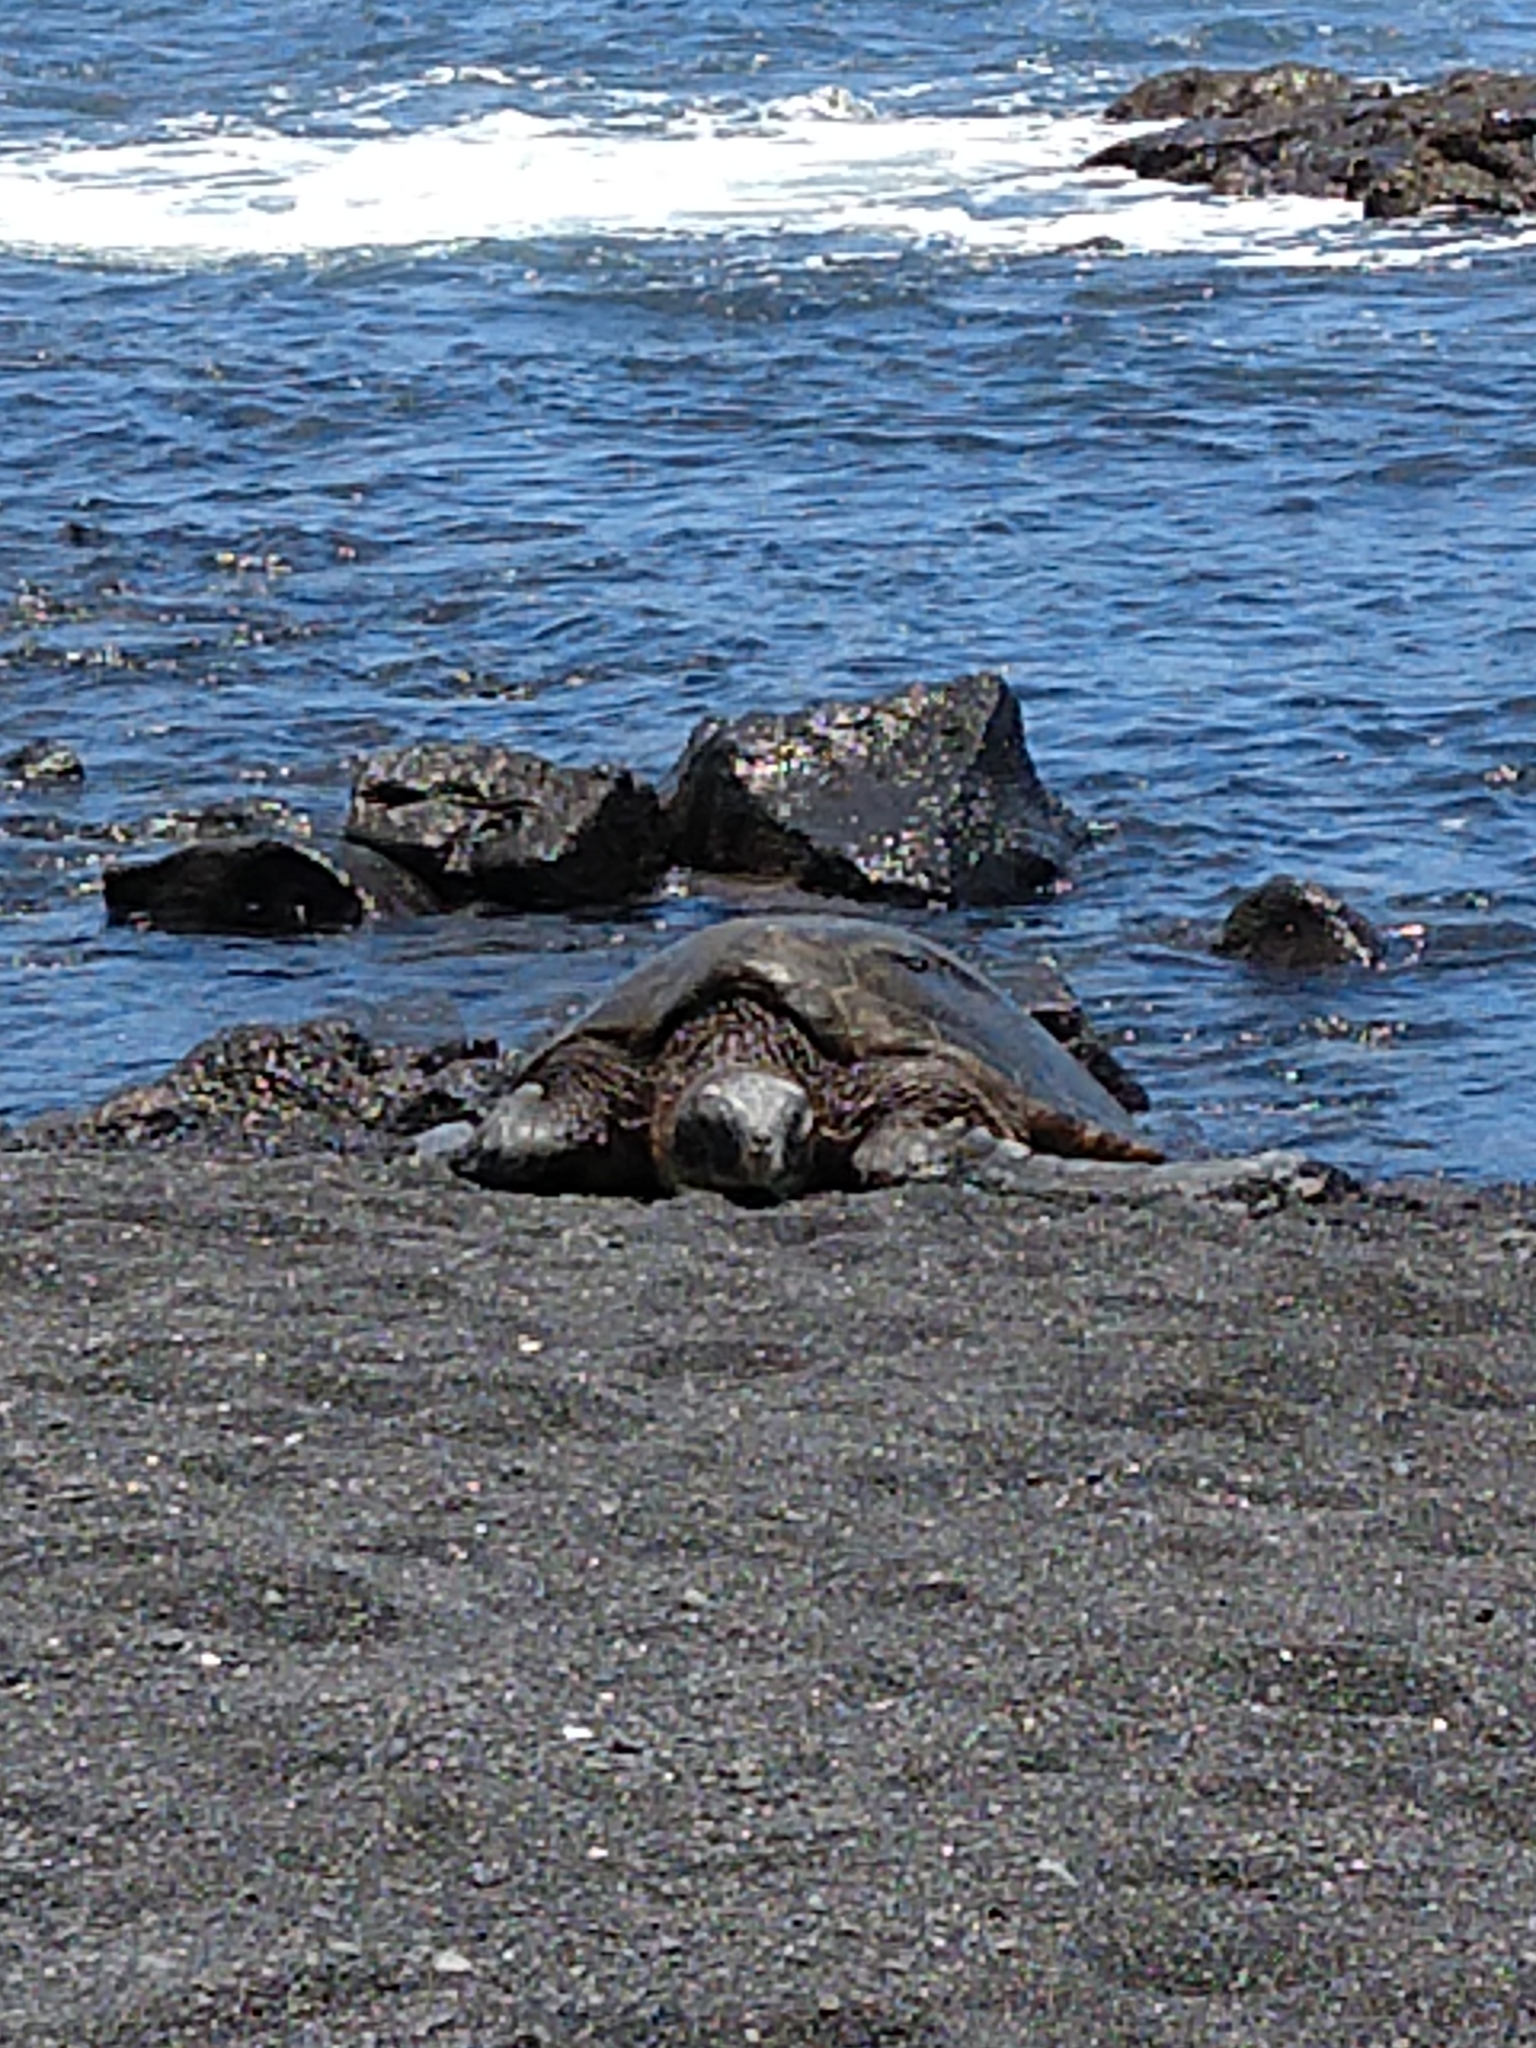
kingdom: Animalia
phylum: Chordata
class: Testudines
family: Cheloniidae
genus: Chelonia
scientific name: Chelonia mydas
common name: Green turtle
